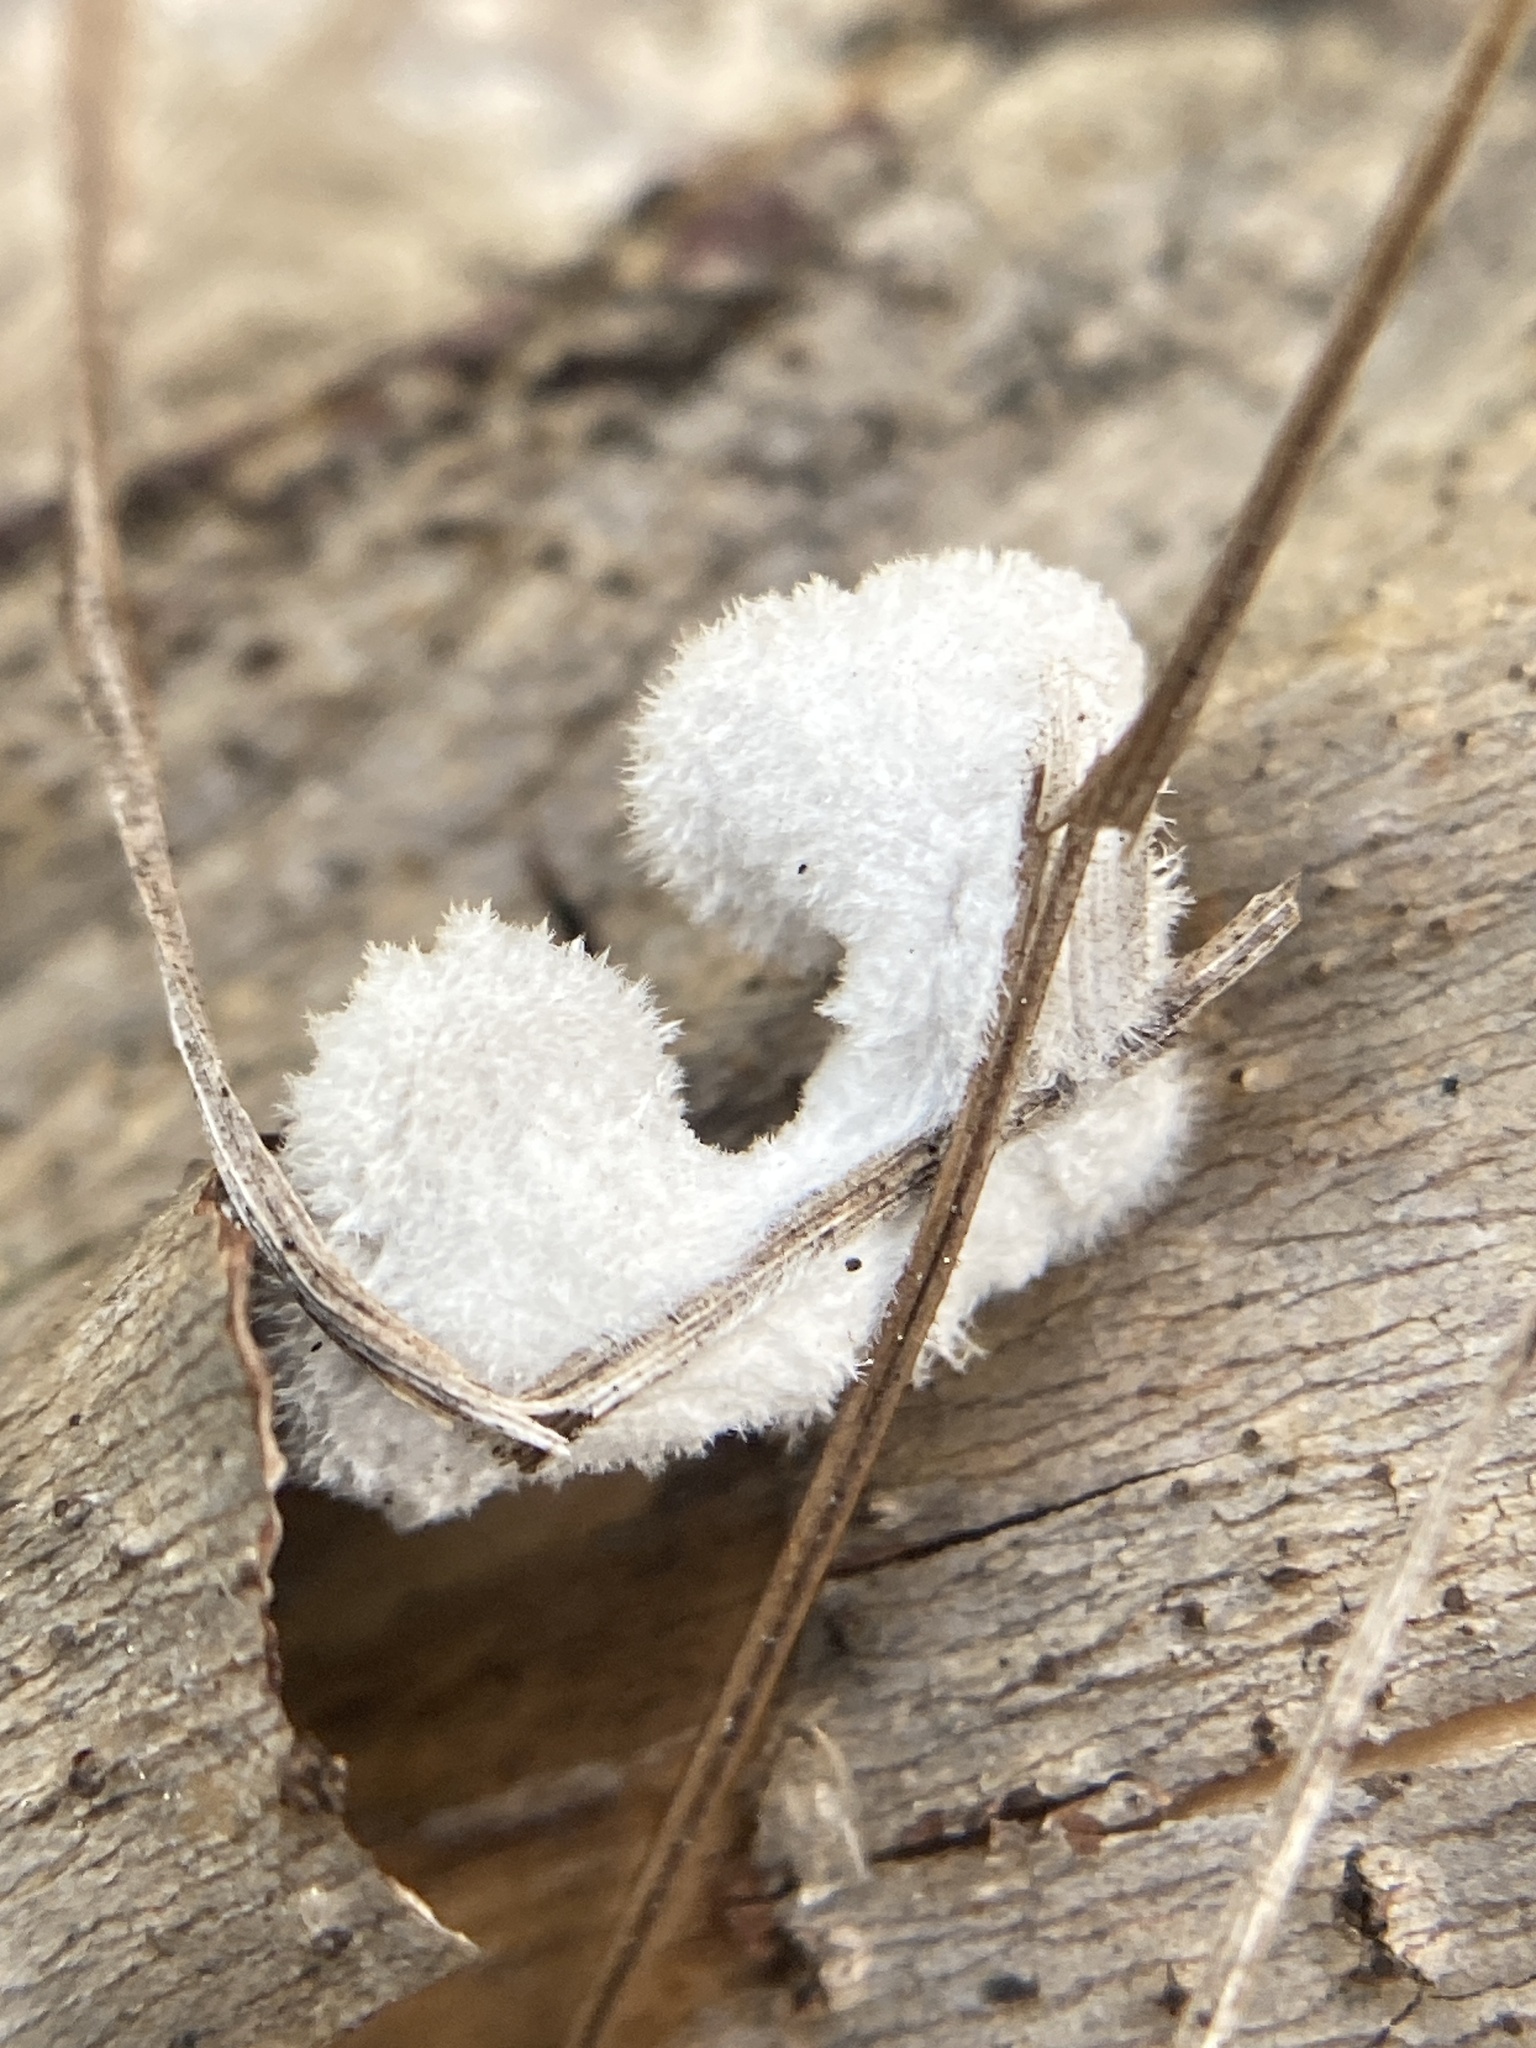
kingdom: Fungi
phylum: Basidiomycota
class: Agaricomycetes
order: Agaricales
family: Schizophyllaceae
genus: Schizophyllum
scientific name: Schizophyllum commune
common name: Common porecrust
